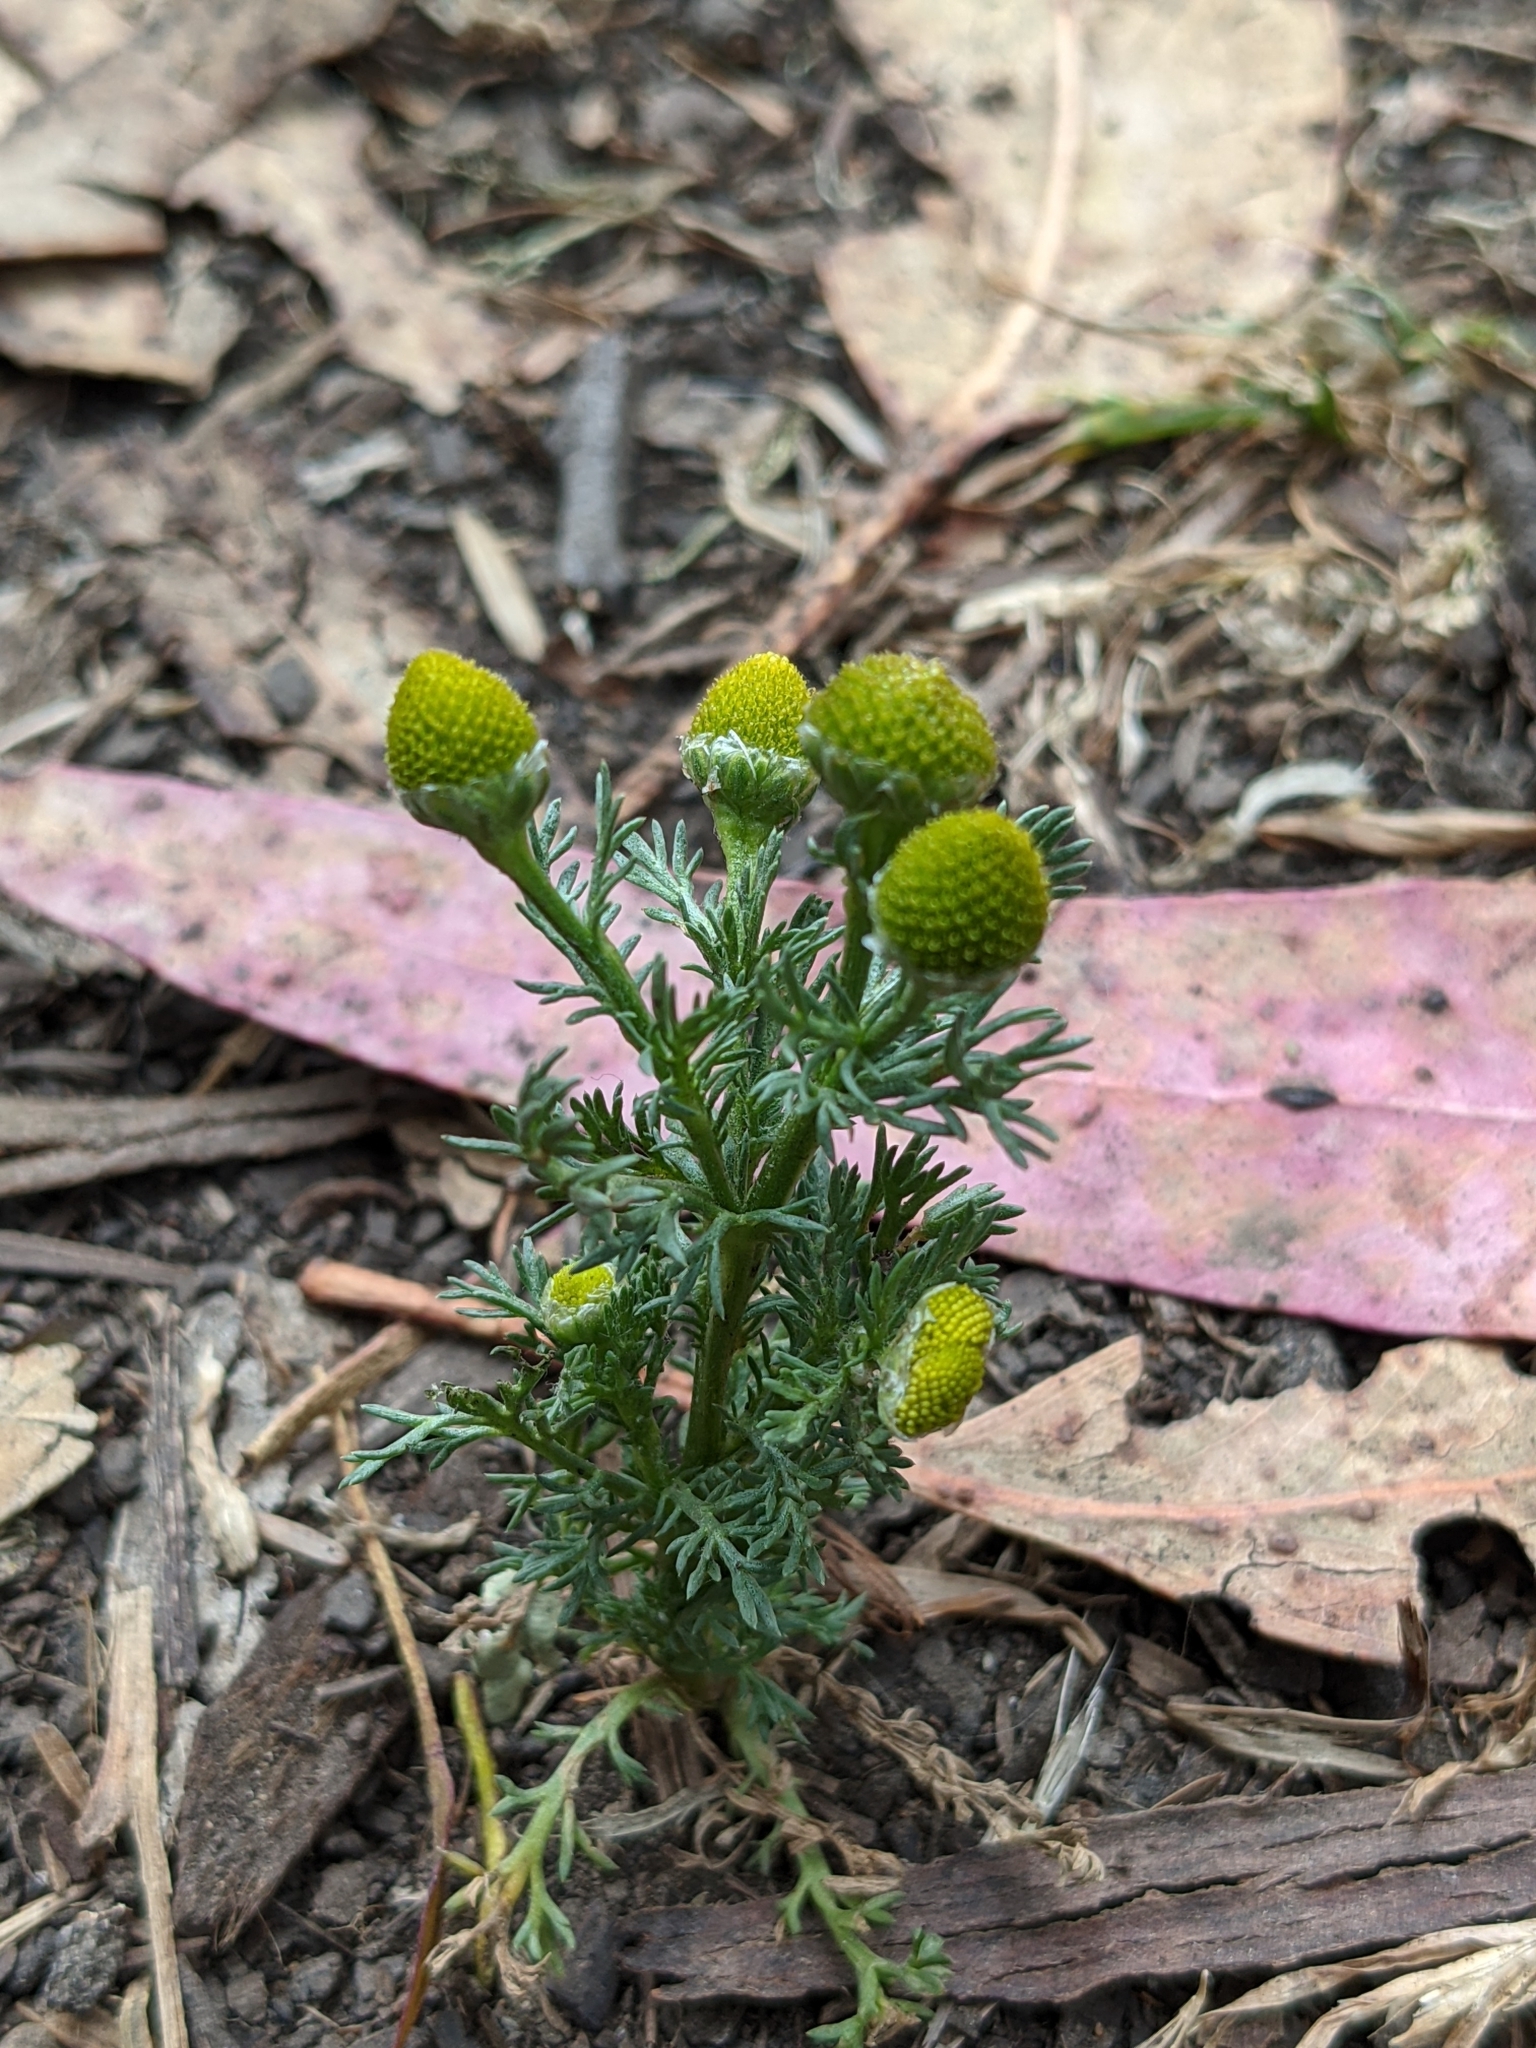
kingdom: Plantae
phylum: Tracheophyta
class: Magnoliopsida
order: Asterales
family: Asteraceae
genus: Matricaria
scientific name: Matricaria discoidea
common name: Disc mayweed
